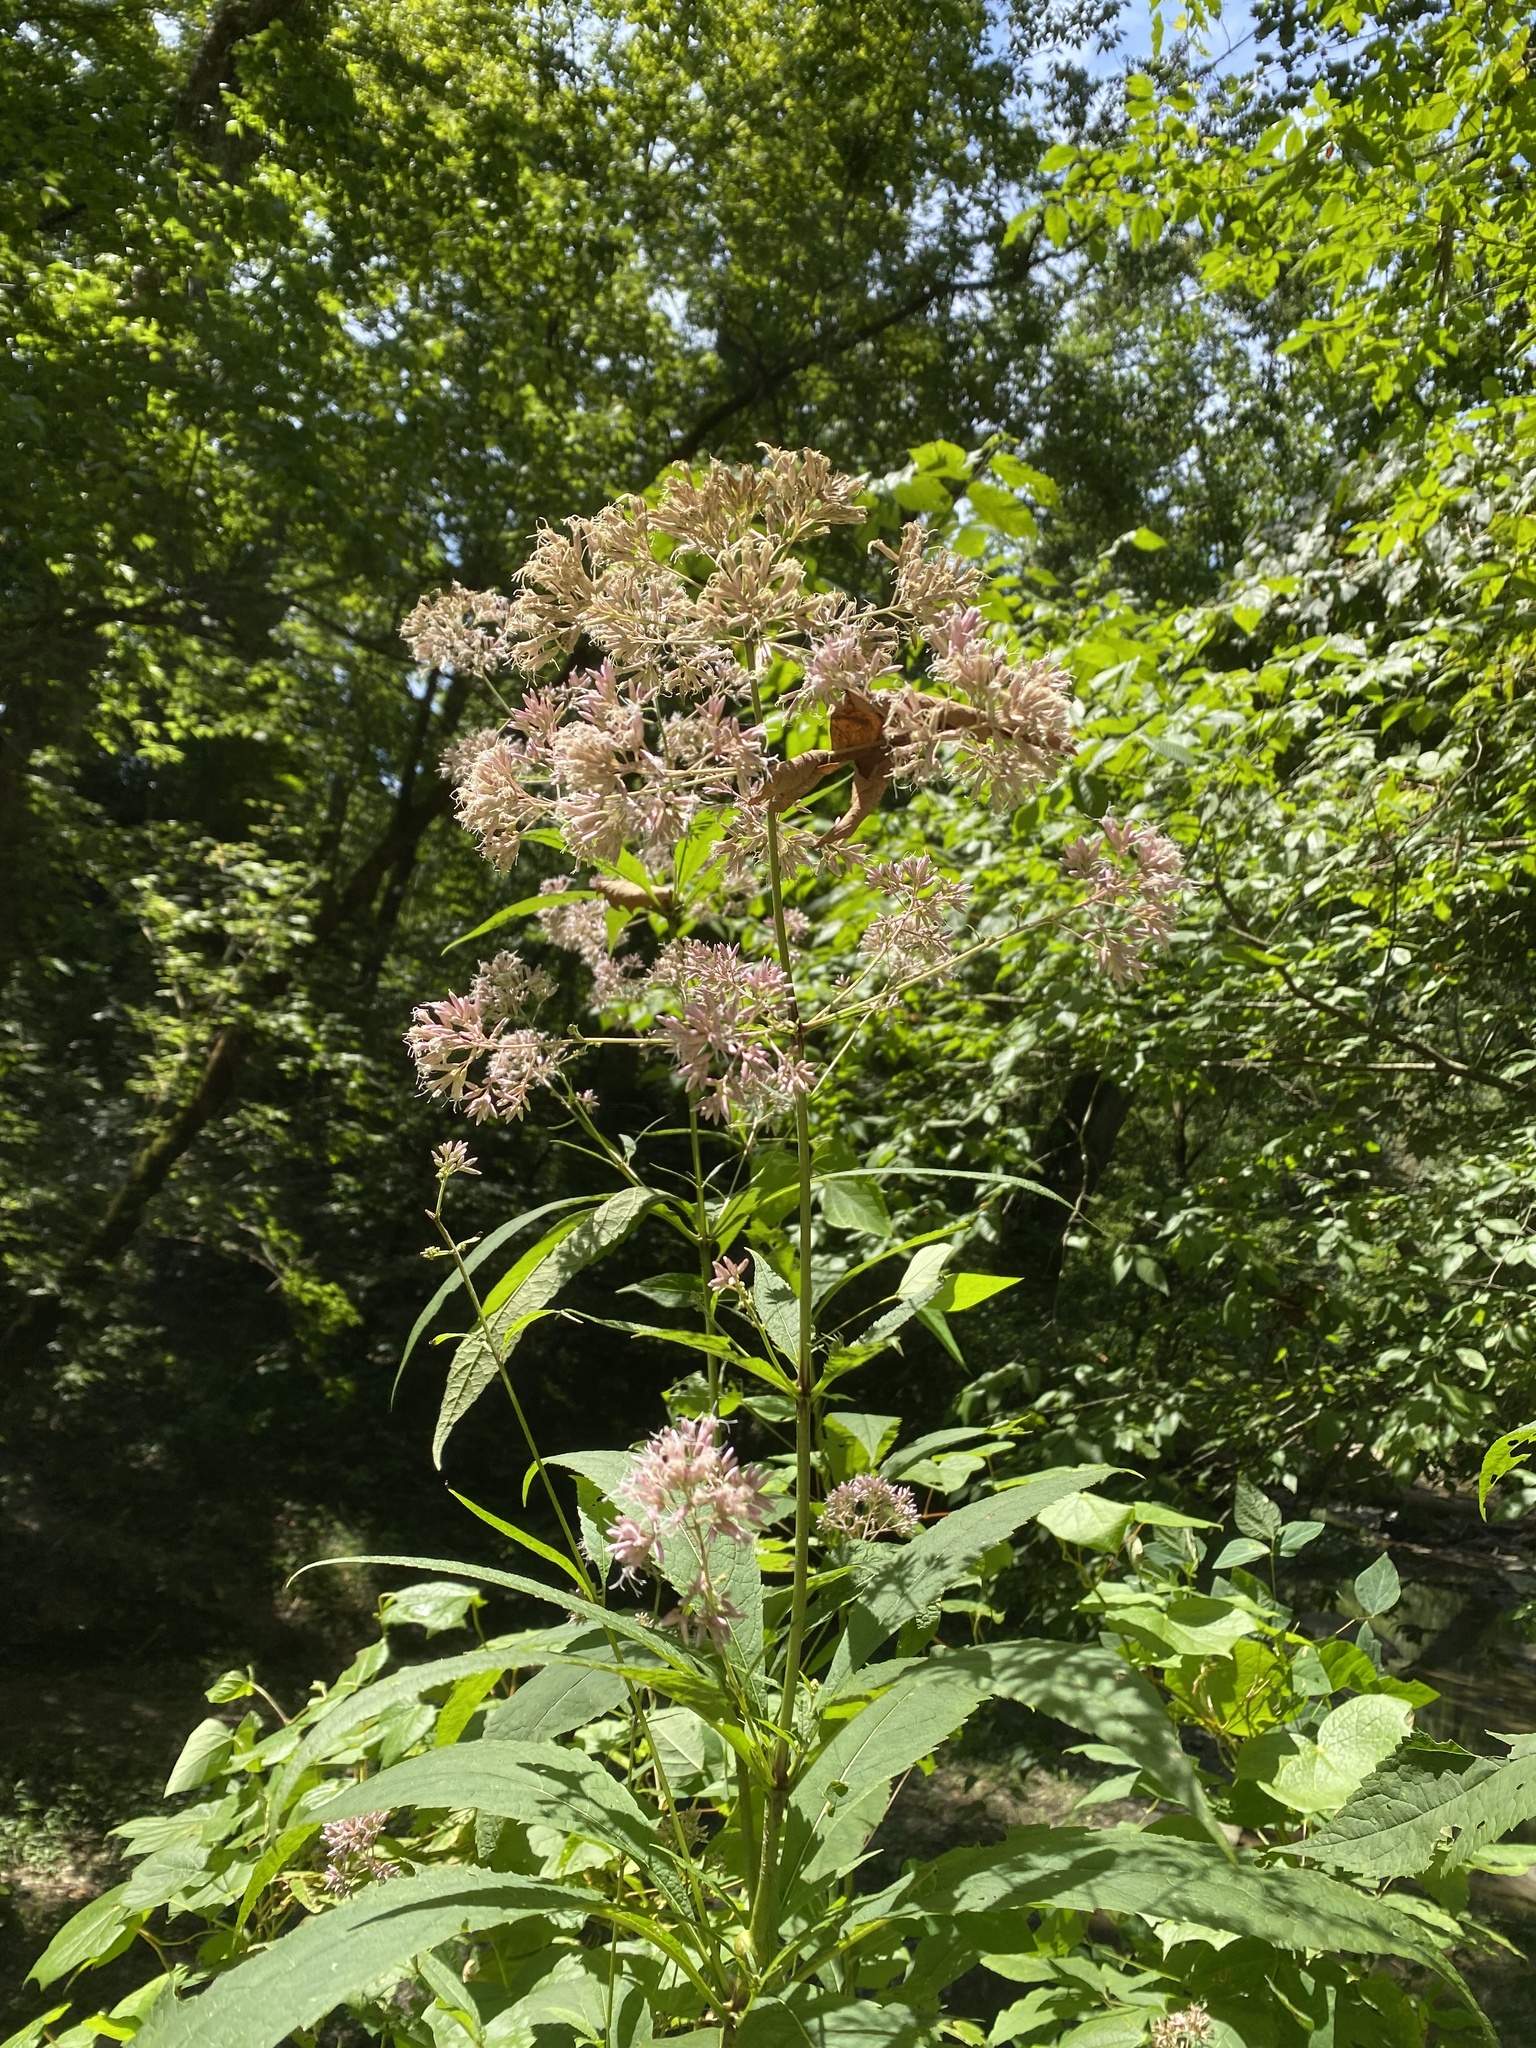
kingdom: Plantae
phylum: Tracheophyta
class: Magnoliopsida
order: Asterales
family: Asteraceae
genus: Eutrochium
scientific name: Eutrochium purpureum
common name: Gravelroot
